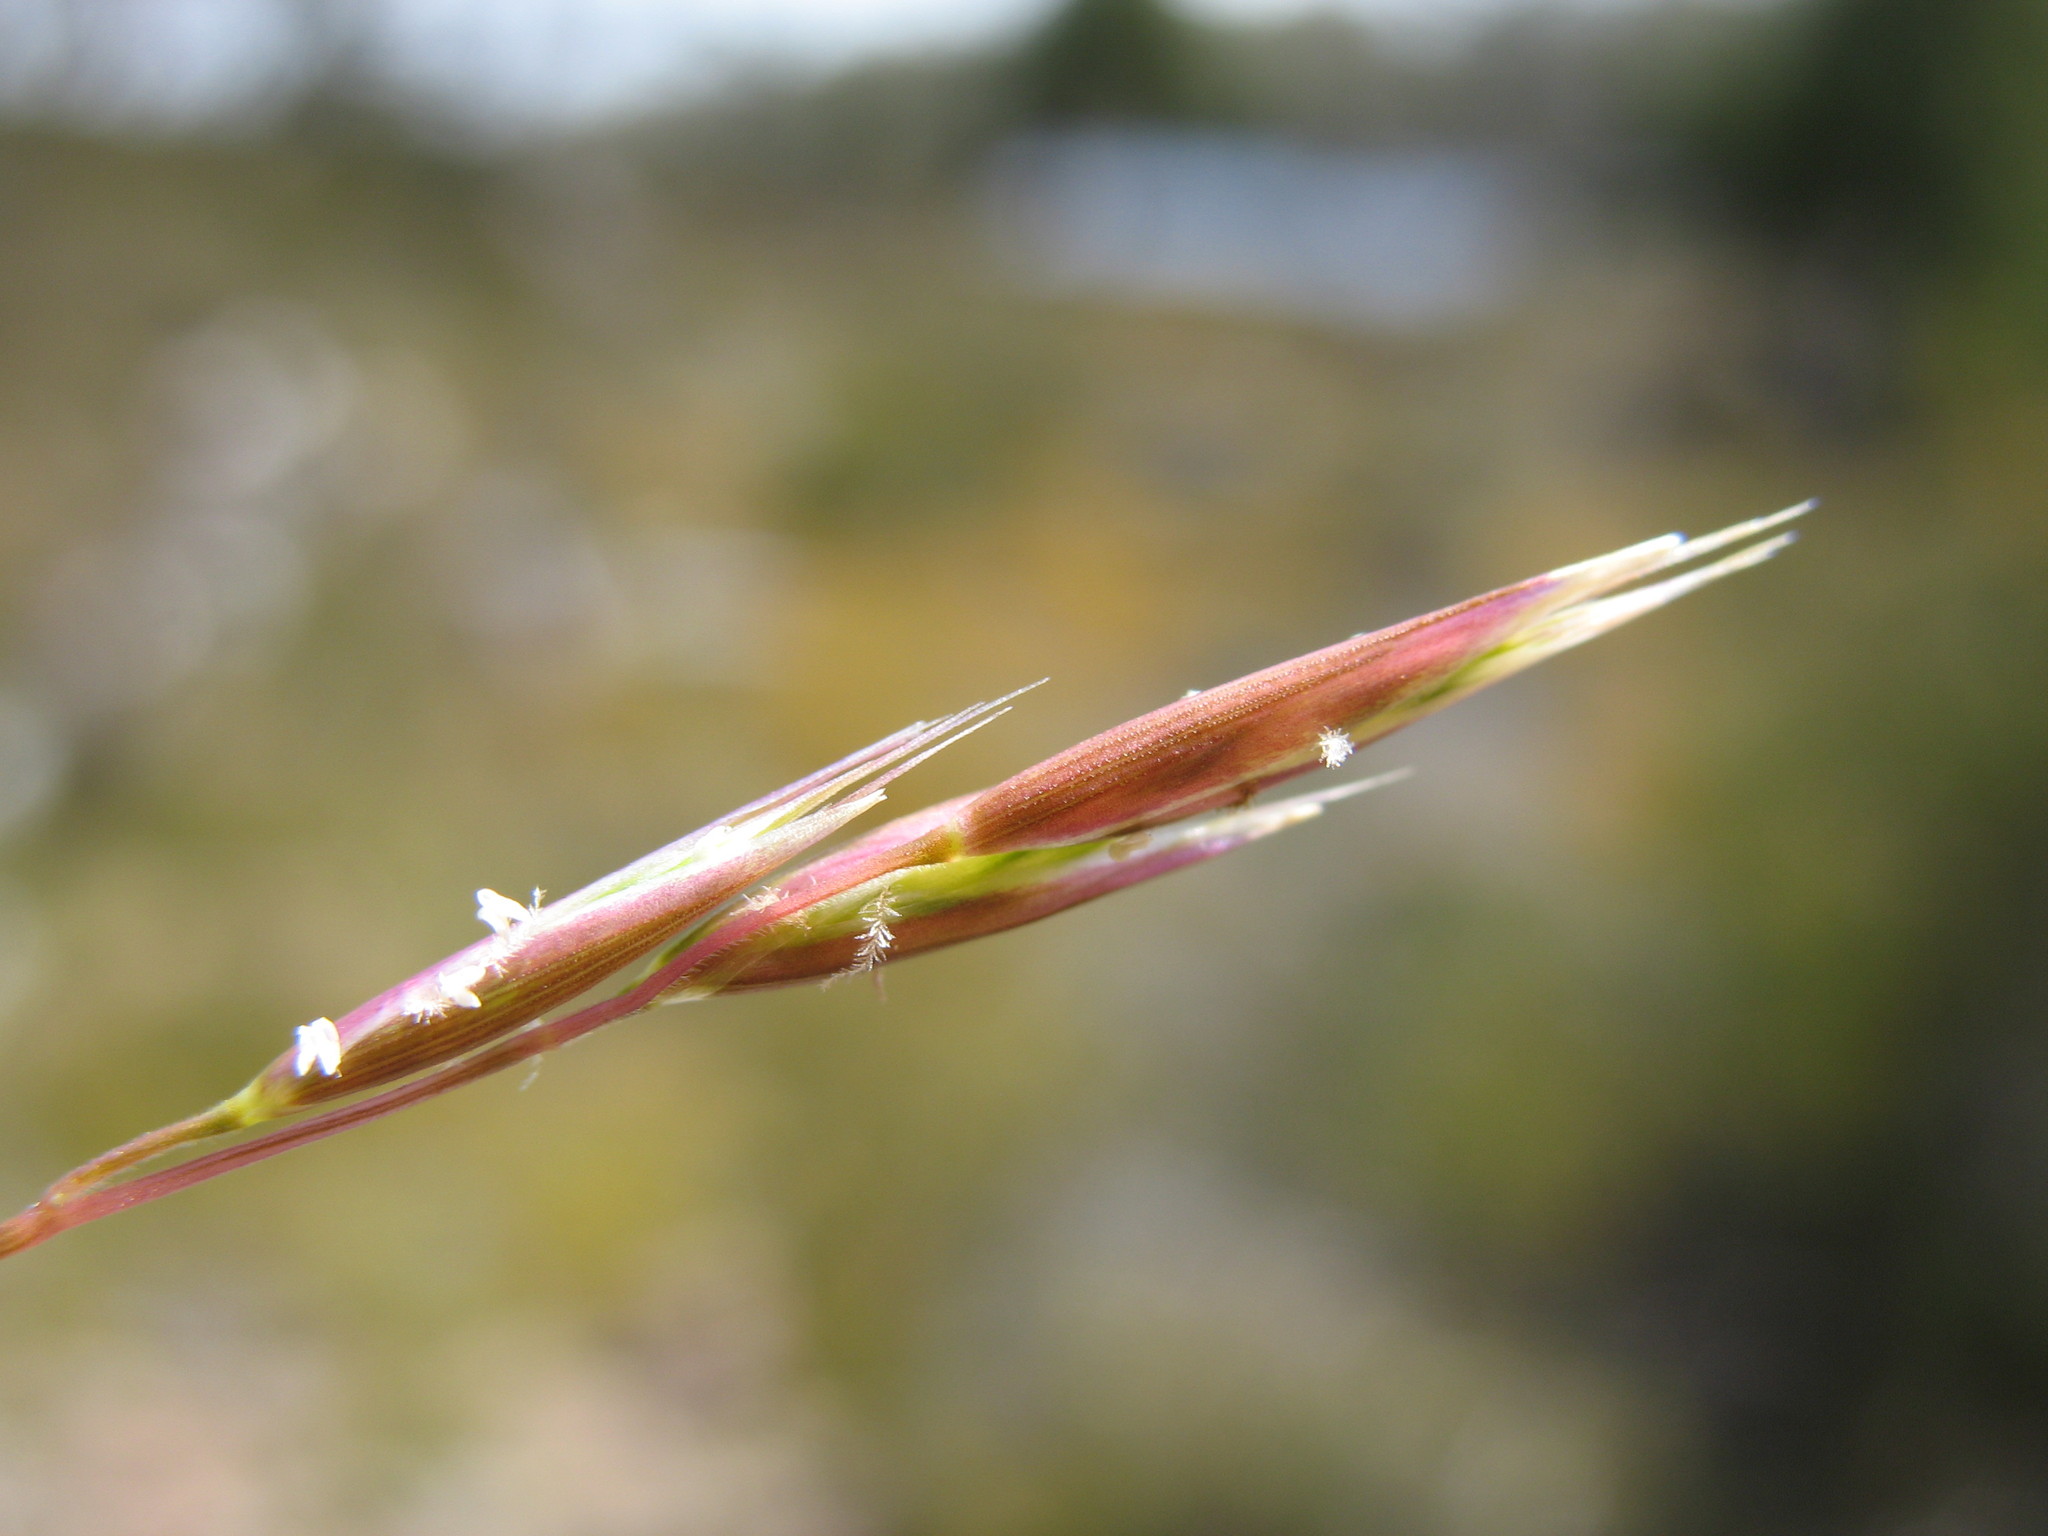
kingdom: Plantae
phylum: Tracheophyta
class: Liliopsida
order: Poales
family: Poaceae
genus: Rytidosperma
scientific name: Rytidosperma nivicola
